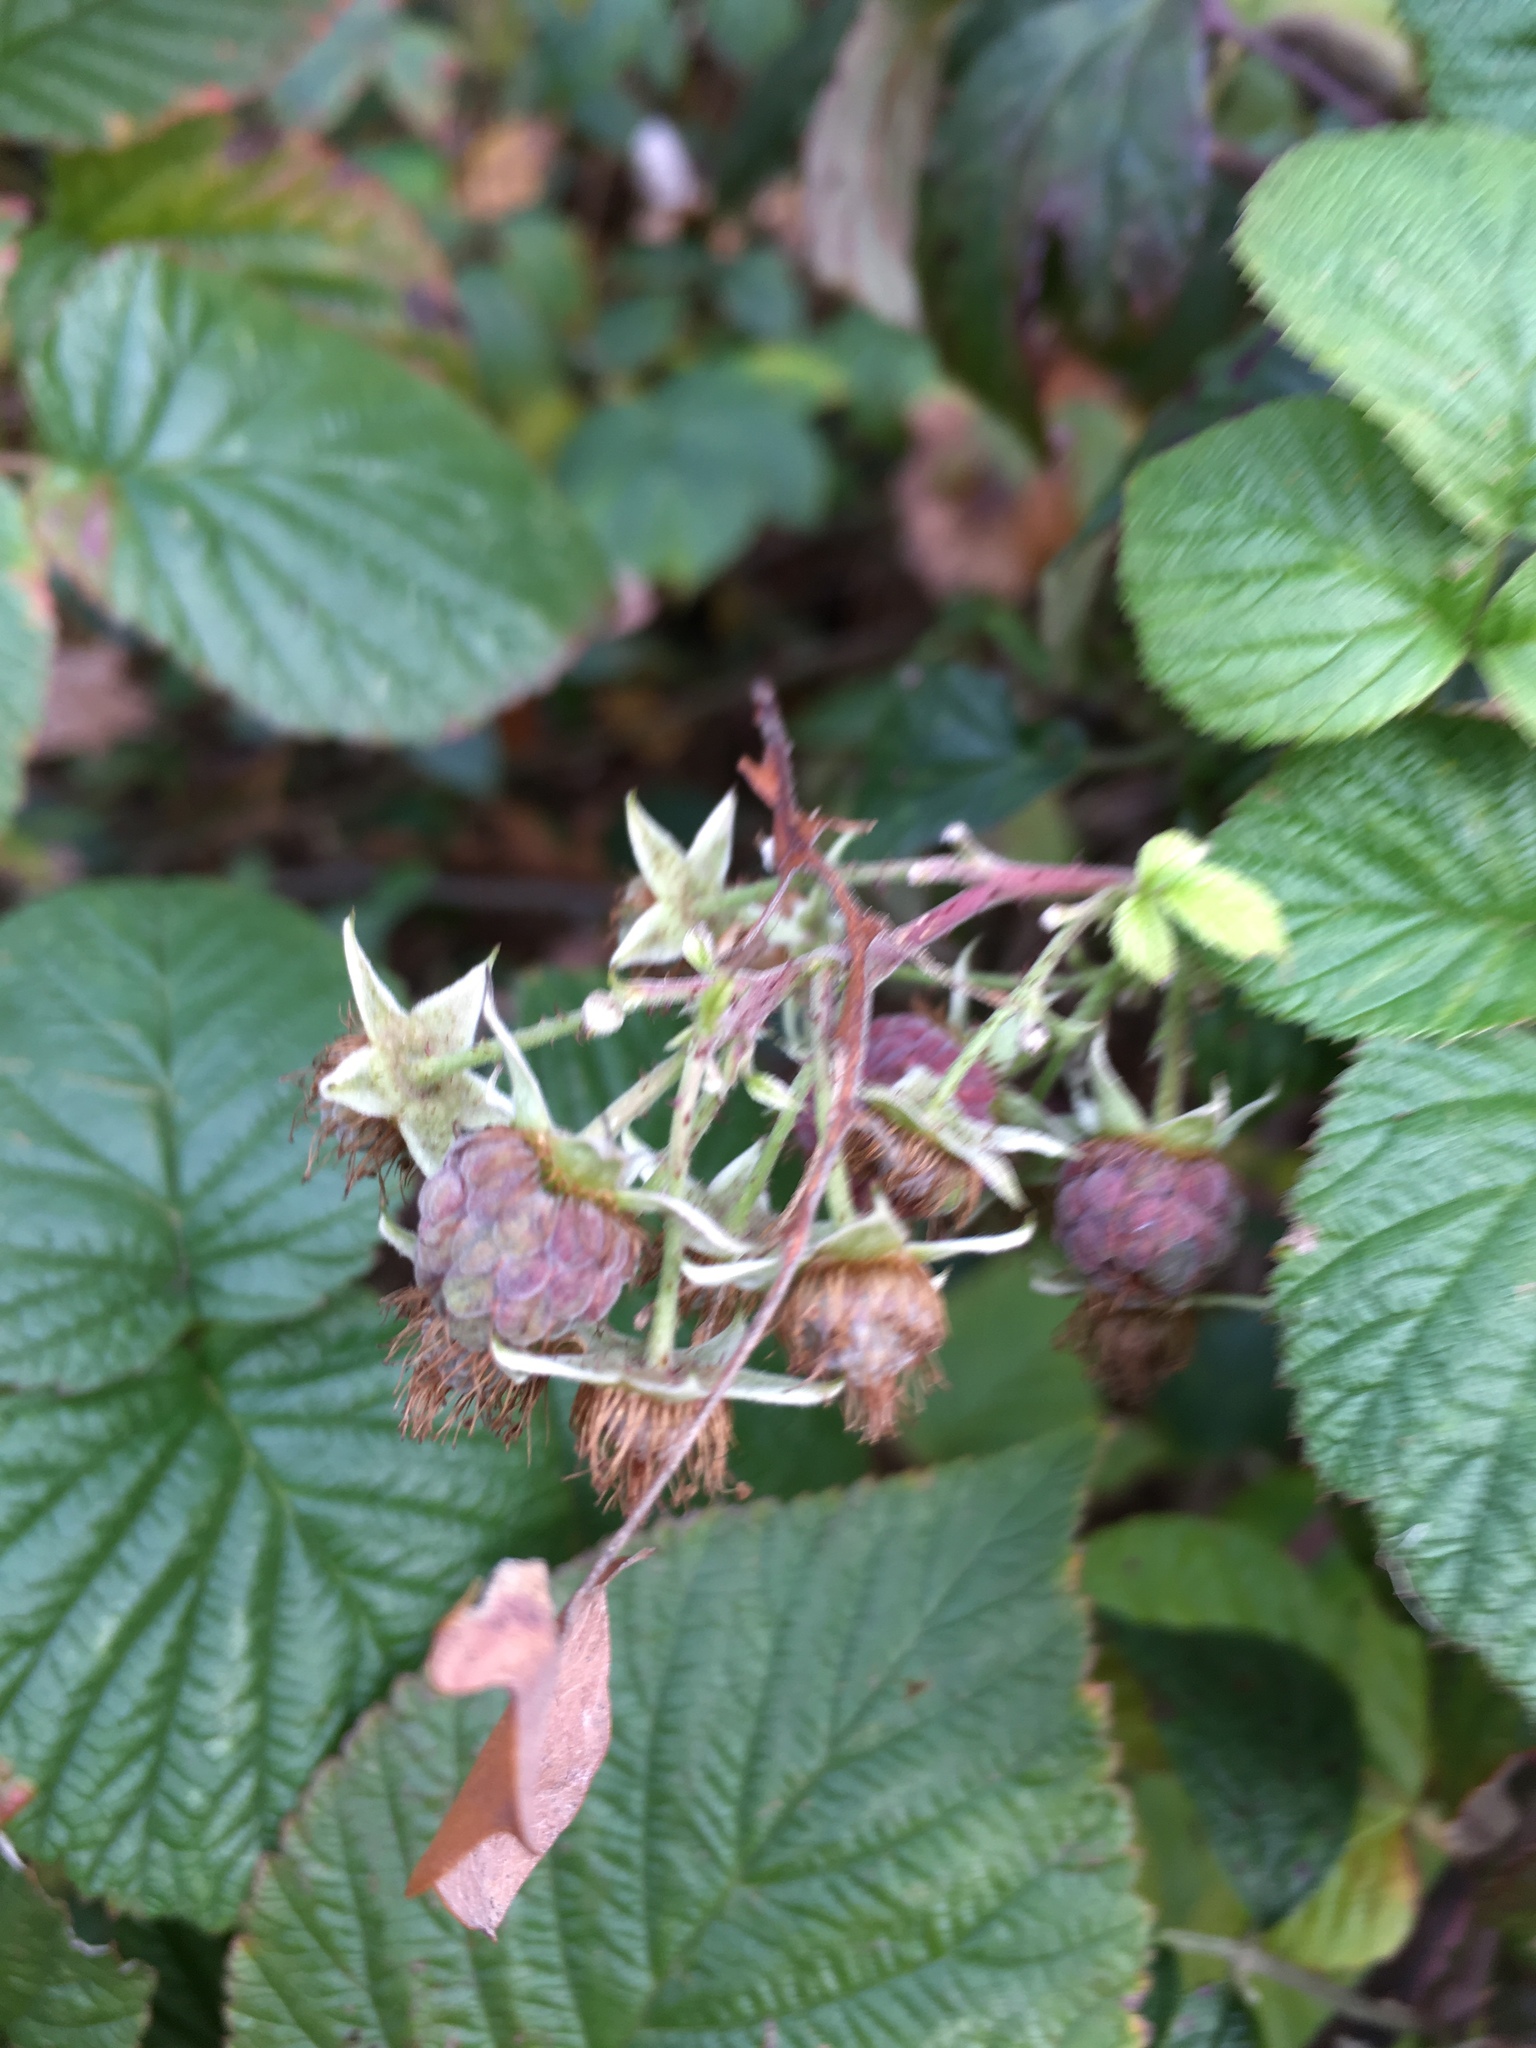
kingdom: Plantae
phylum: Tracheophyta
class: Magnoliopsida
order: Rosales
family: Rosaceae
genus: Rubus
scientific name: Rubus idaeus
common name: Raspberry
